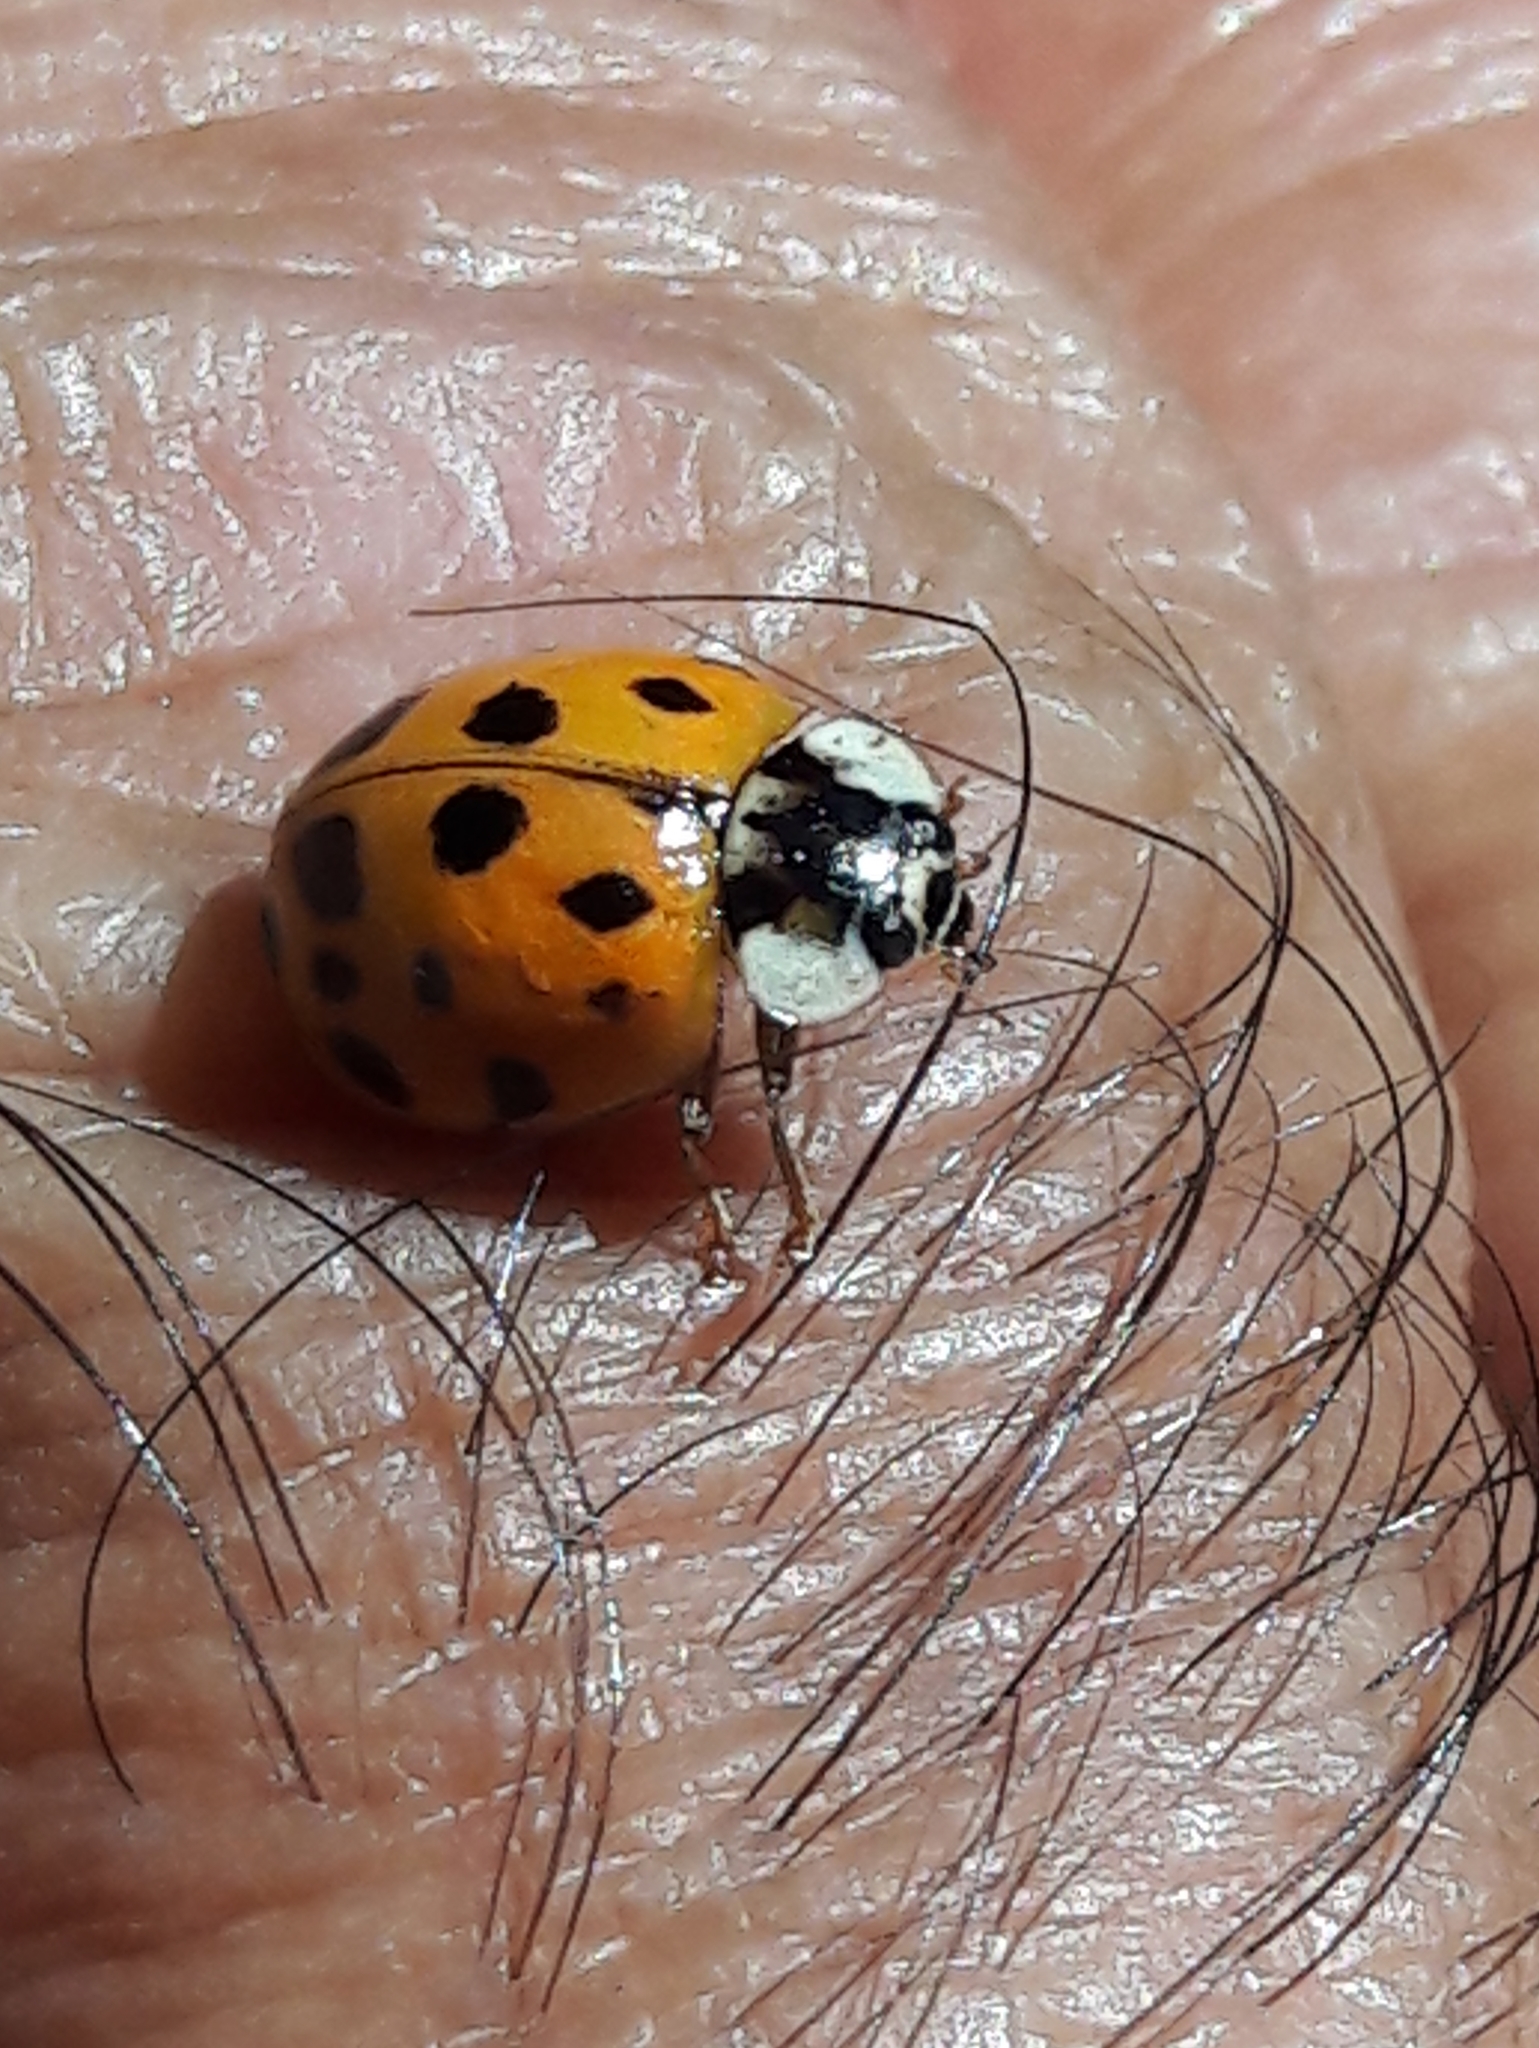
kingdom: Animalia
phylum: Arthropoda
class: Insecta
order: Coleoptera
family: Coccinellidae
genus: Harmonia
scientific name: Harmonia axyridis
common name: Harlequin ladybird
